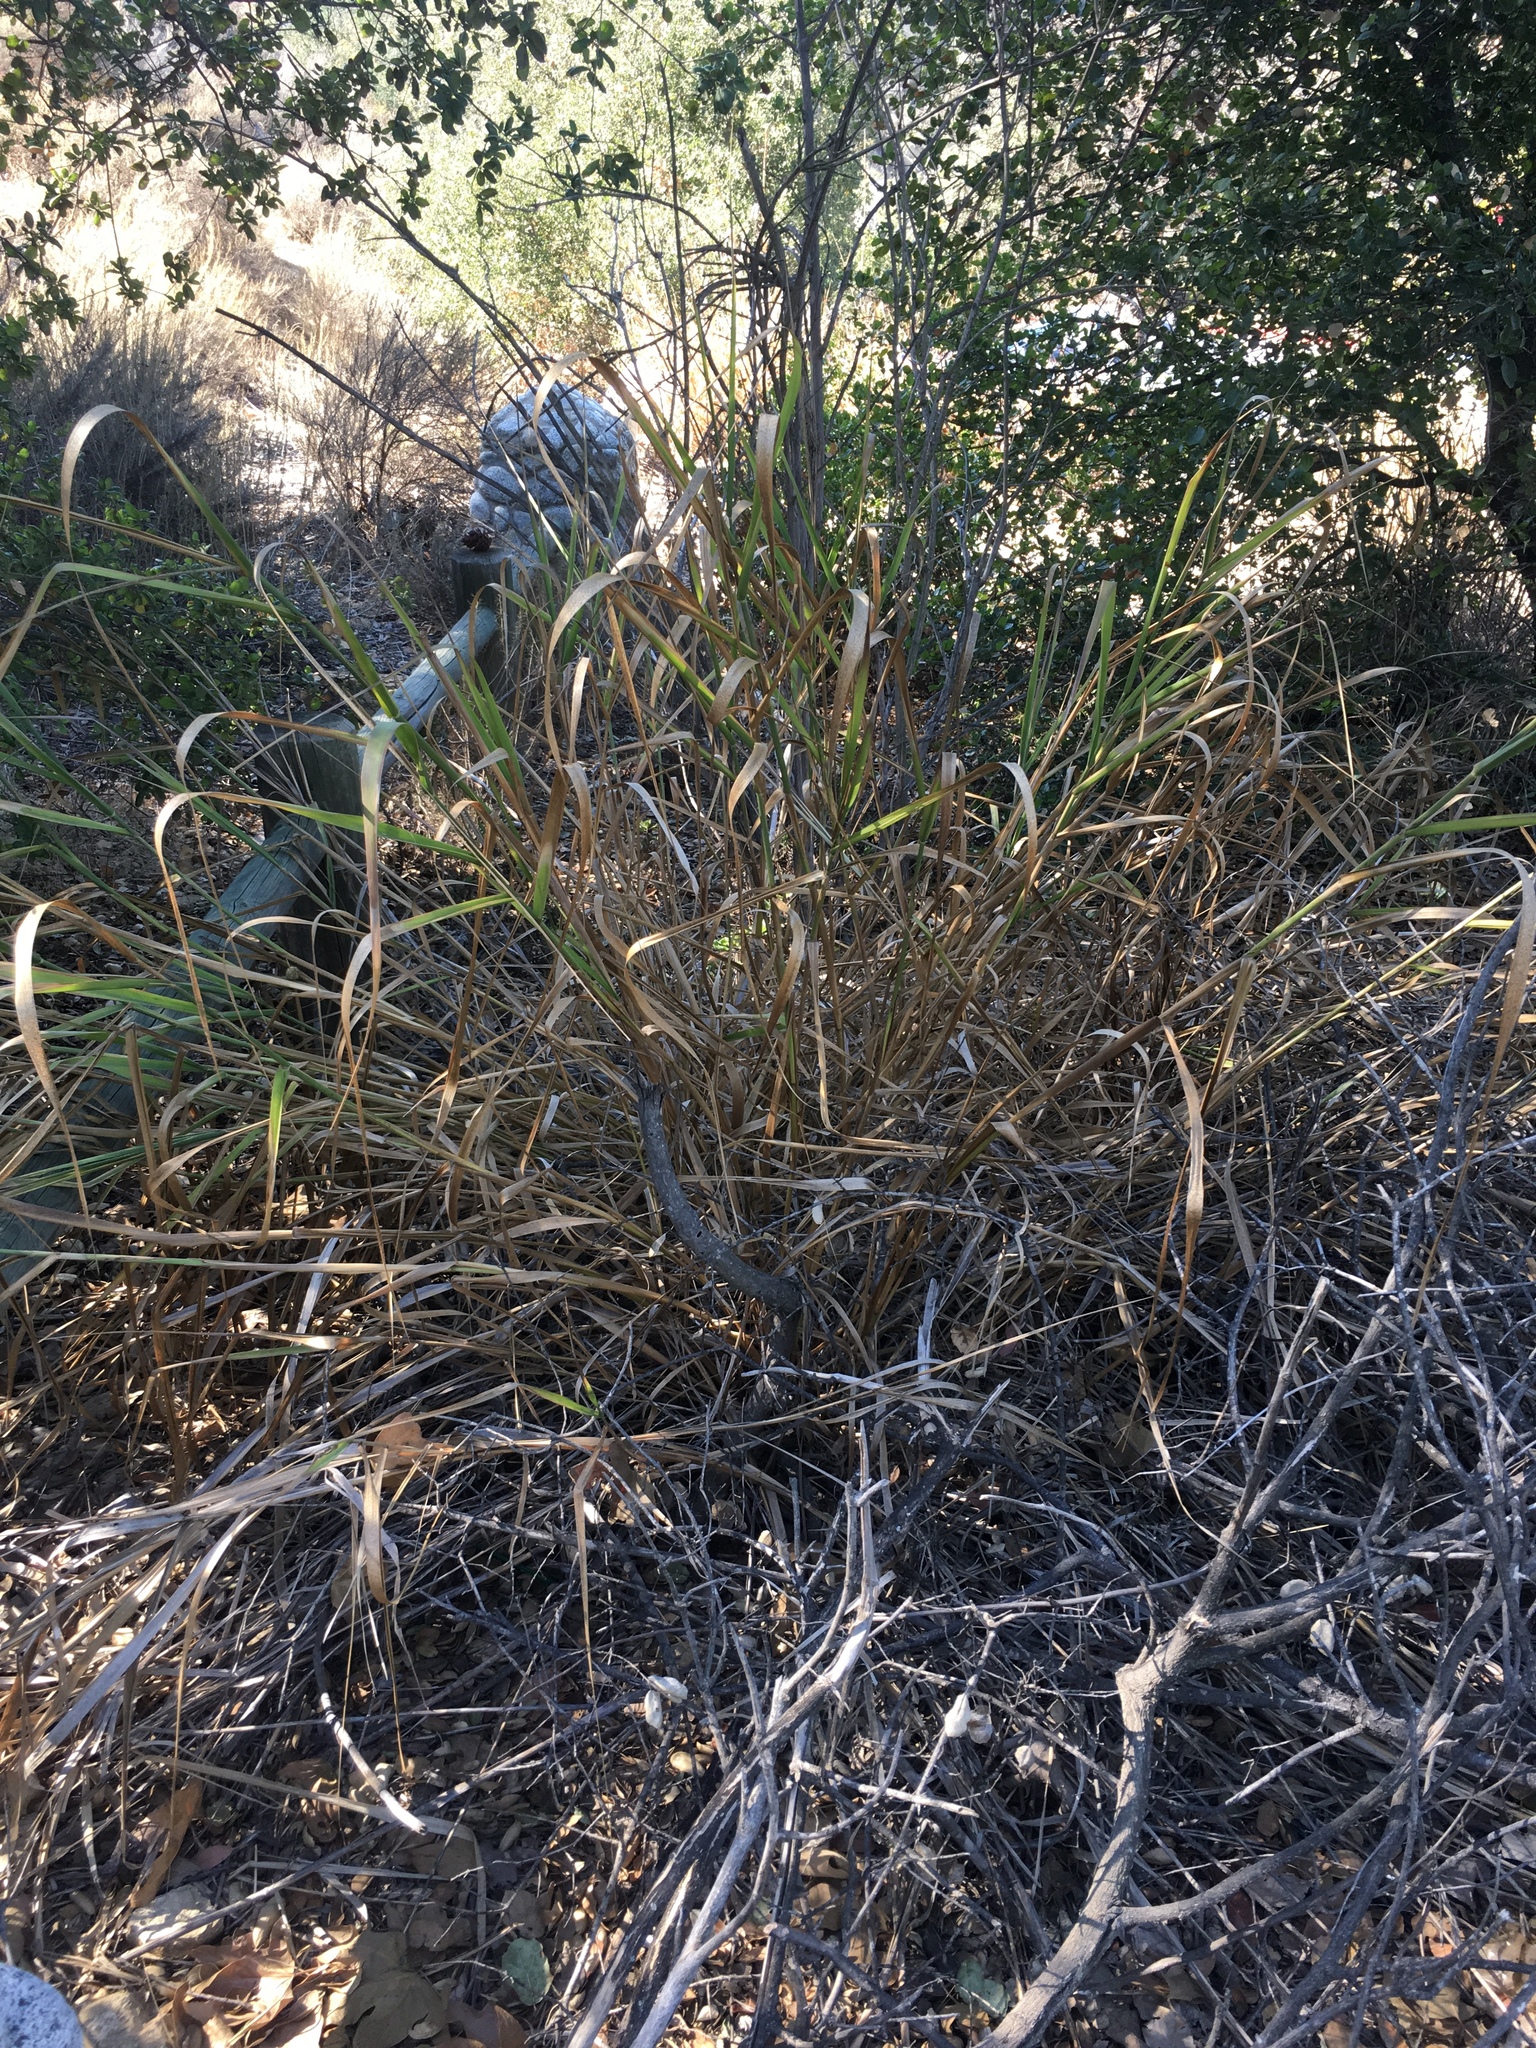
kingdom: Plantae
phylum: Tracheophyta
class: Liliopsida
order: Poales
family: Poaceae
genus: Leymus
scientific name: Leymus condensatus
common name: Giant wild rye
